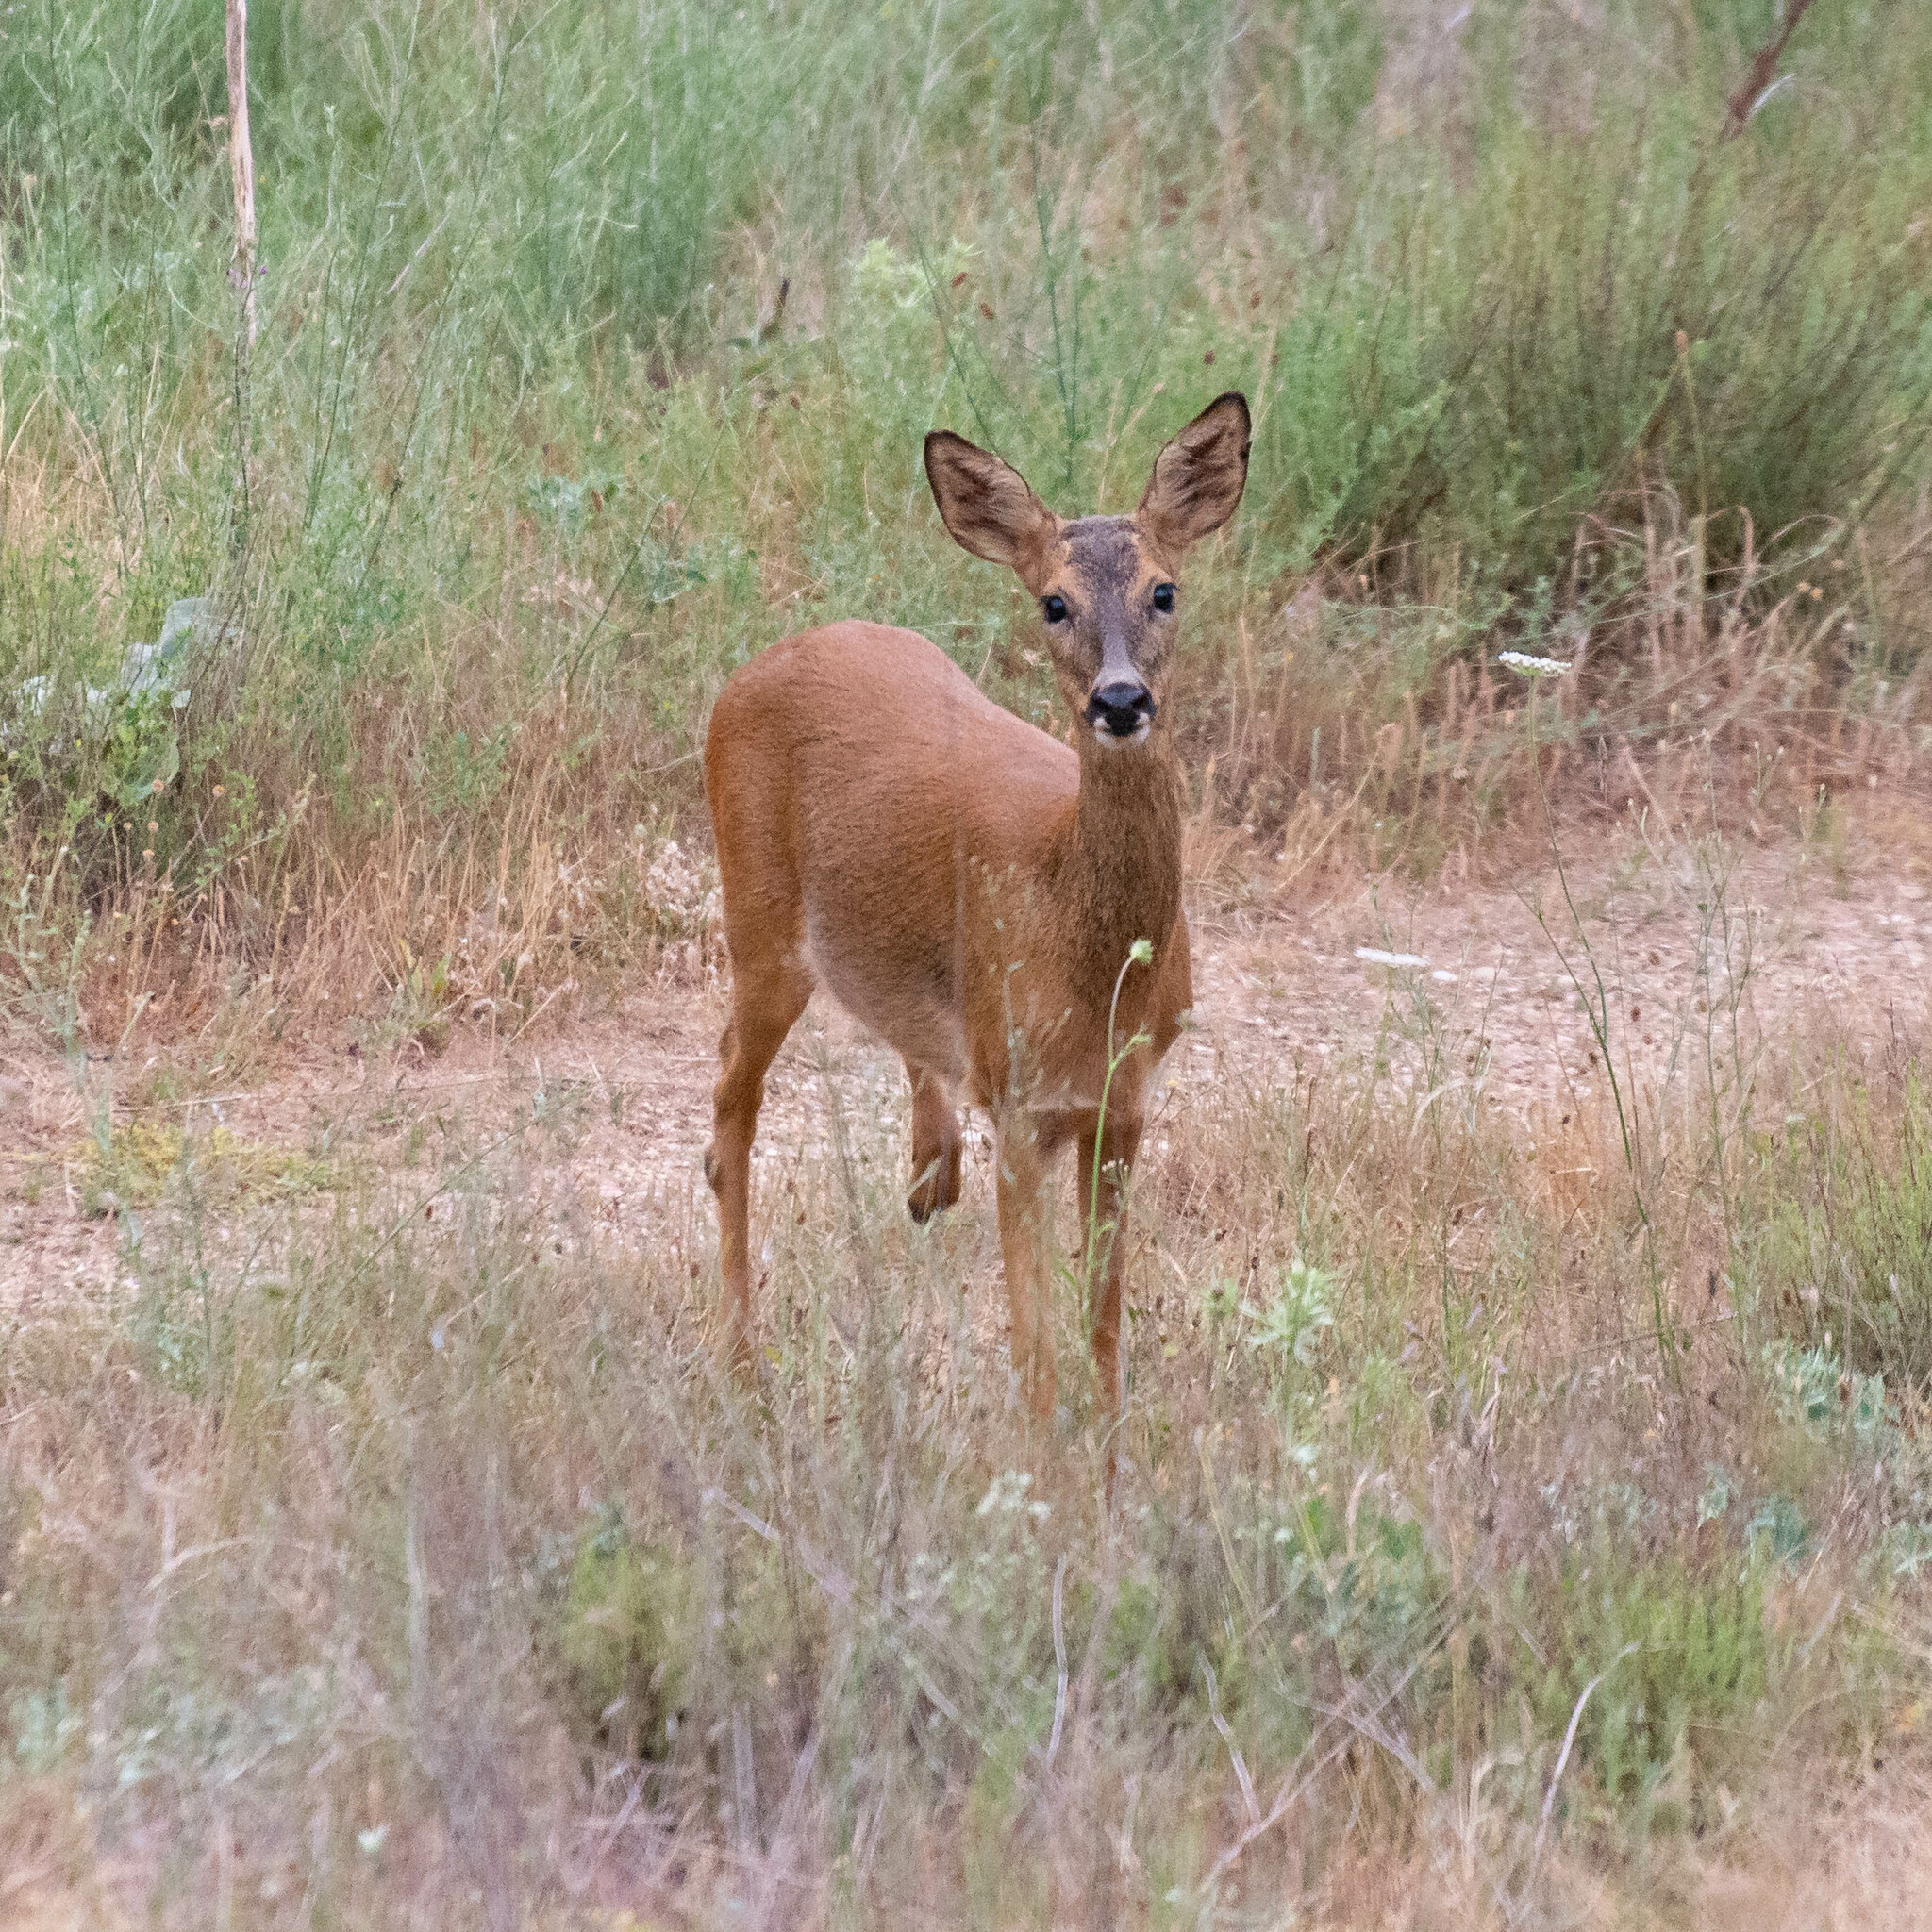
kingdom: Animalia
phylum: Chordata
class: Mammalia
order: Artiodactyla
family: Cervidae
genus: Capreolus
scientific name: Capreolus capreolus
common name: Western roe deer
